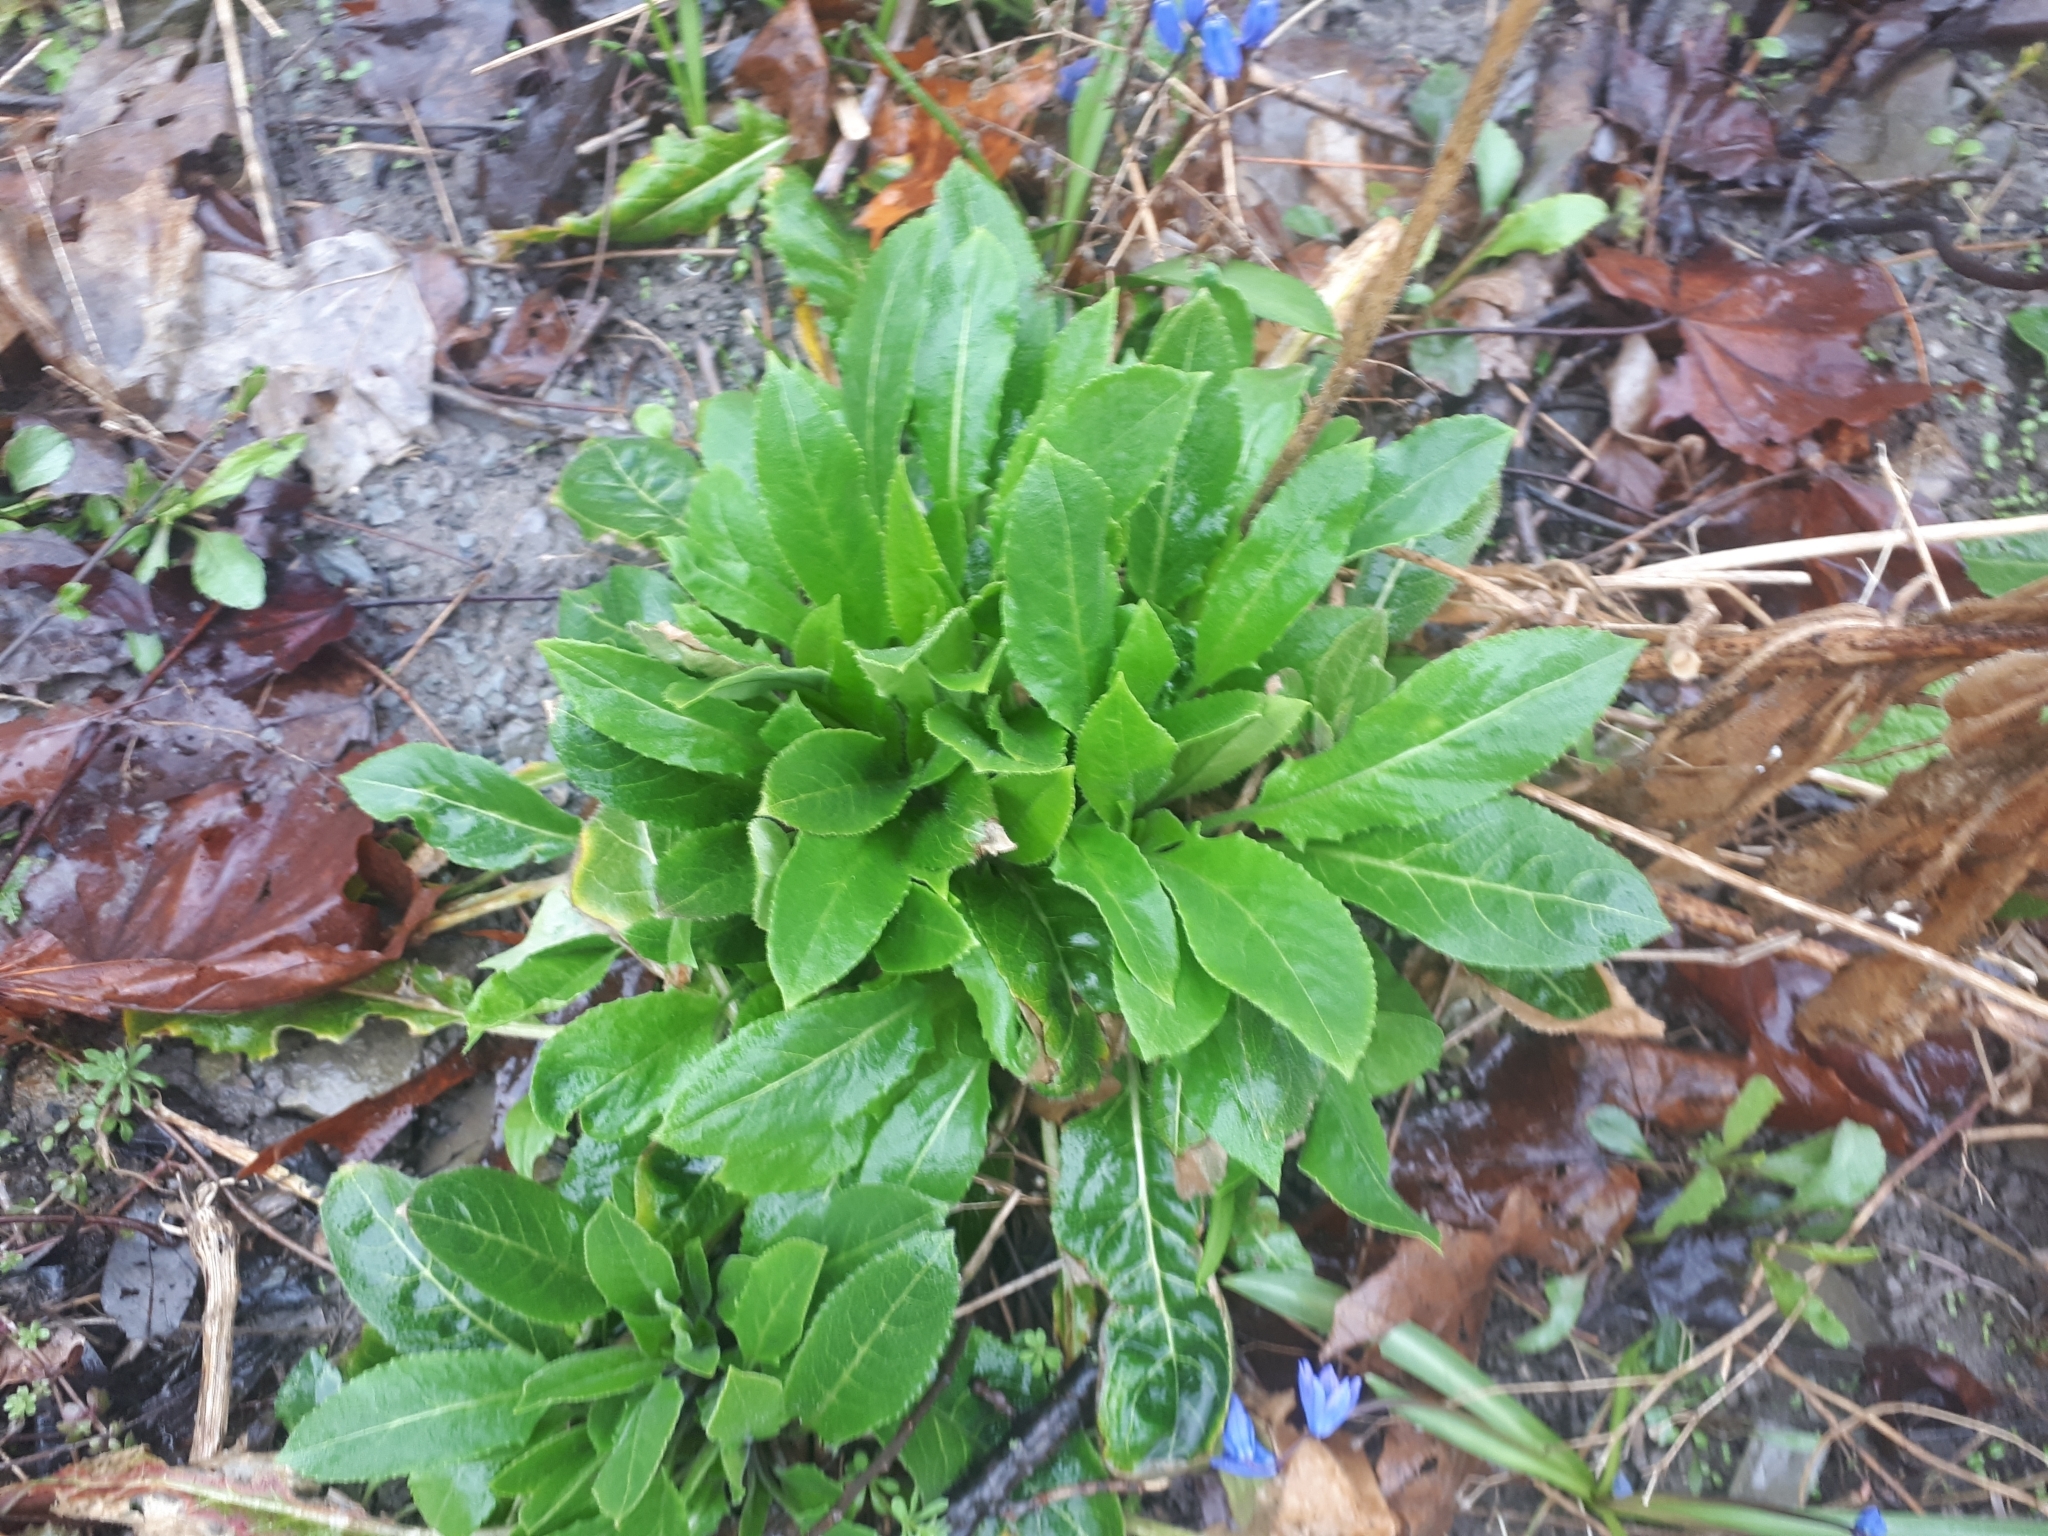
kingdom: Plantae
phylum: Tracheophyta
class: Magnoliopsida
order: Brassicales
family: Brassicaceae
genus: Hesperis
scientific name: Hesperis matronalis
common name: Dame's-violet
